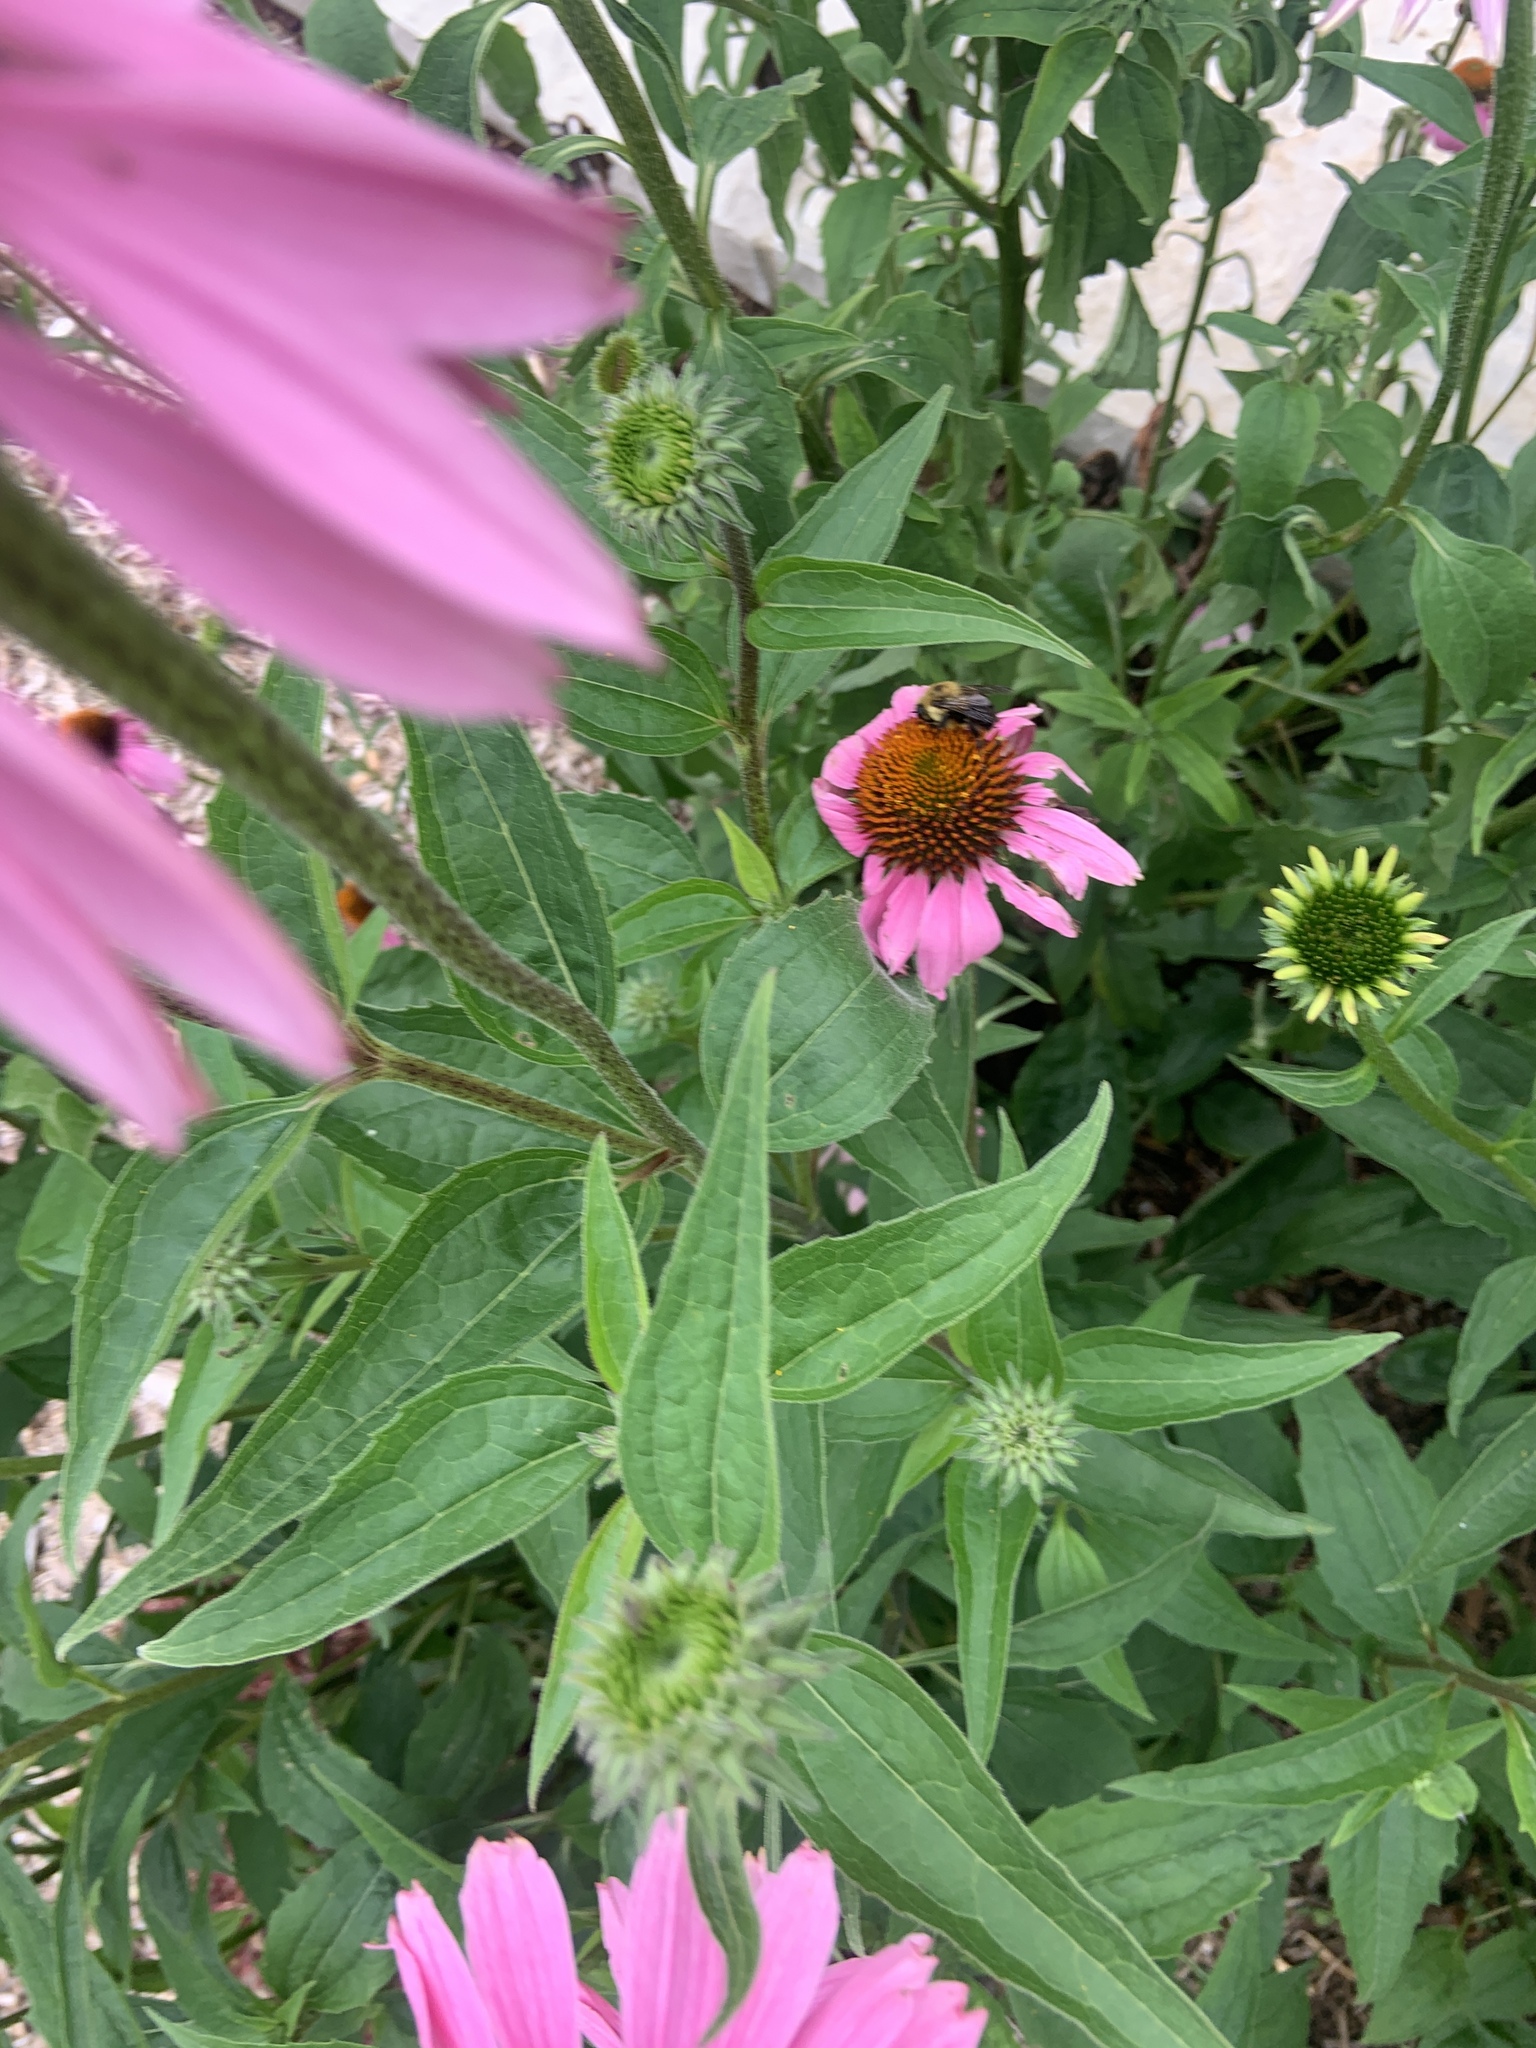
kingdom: Animalia
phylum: Arthropoda
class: Insecta
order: Hymenoptera
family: Apidae
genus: Bombus
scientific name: Bombus griseocollis
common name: Brown-belted bumble bee
